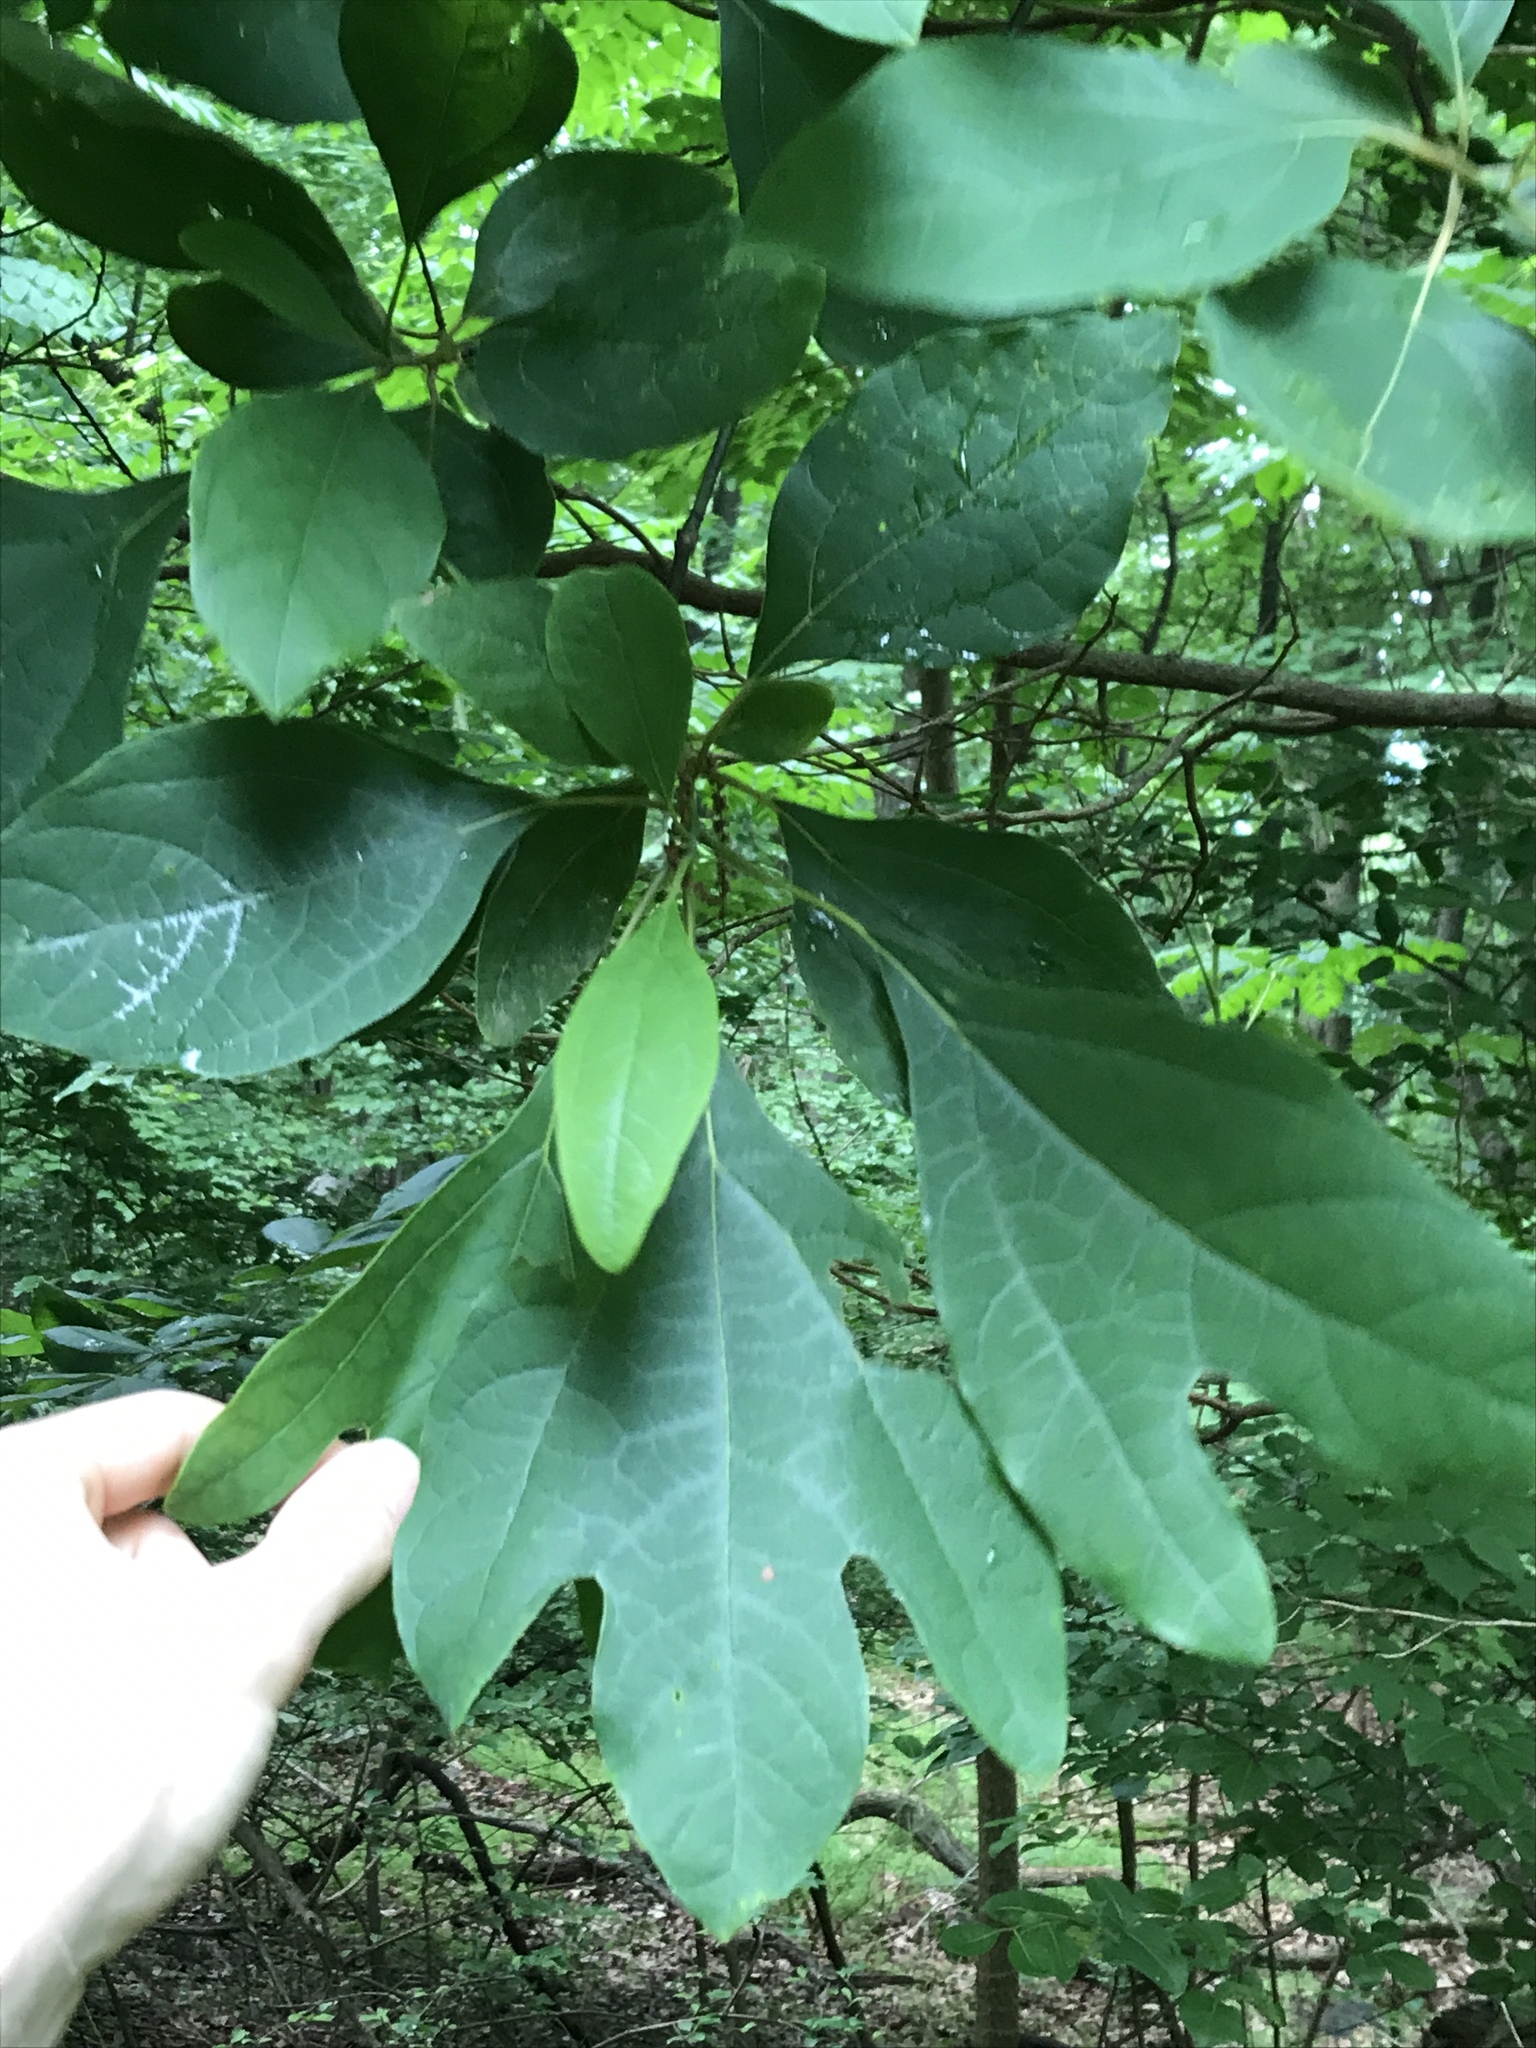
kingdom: Plantae
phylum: Tracheophyta
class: Magnoliopsida
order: Laurales
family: Lauraceae
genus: Sassafras
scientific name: Sassafras albidum
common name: Sassafras
